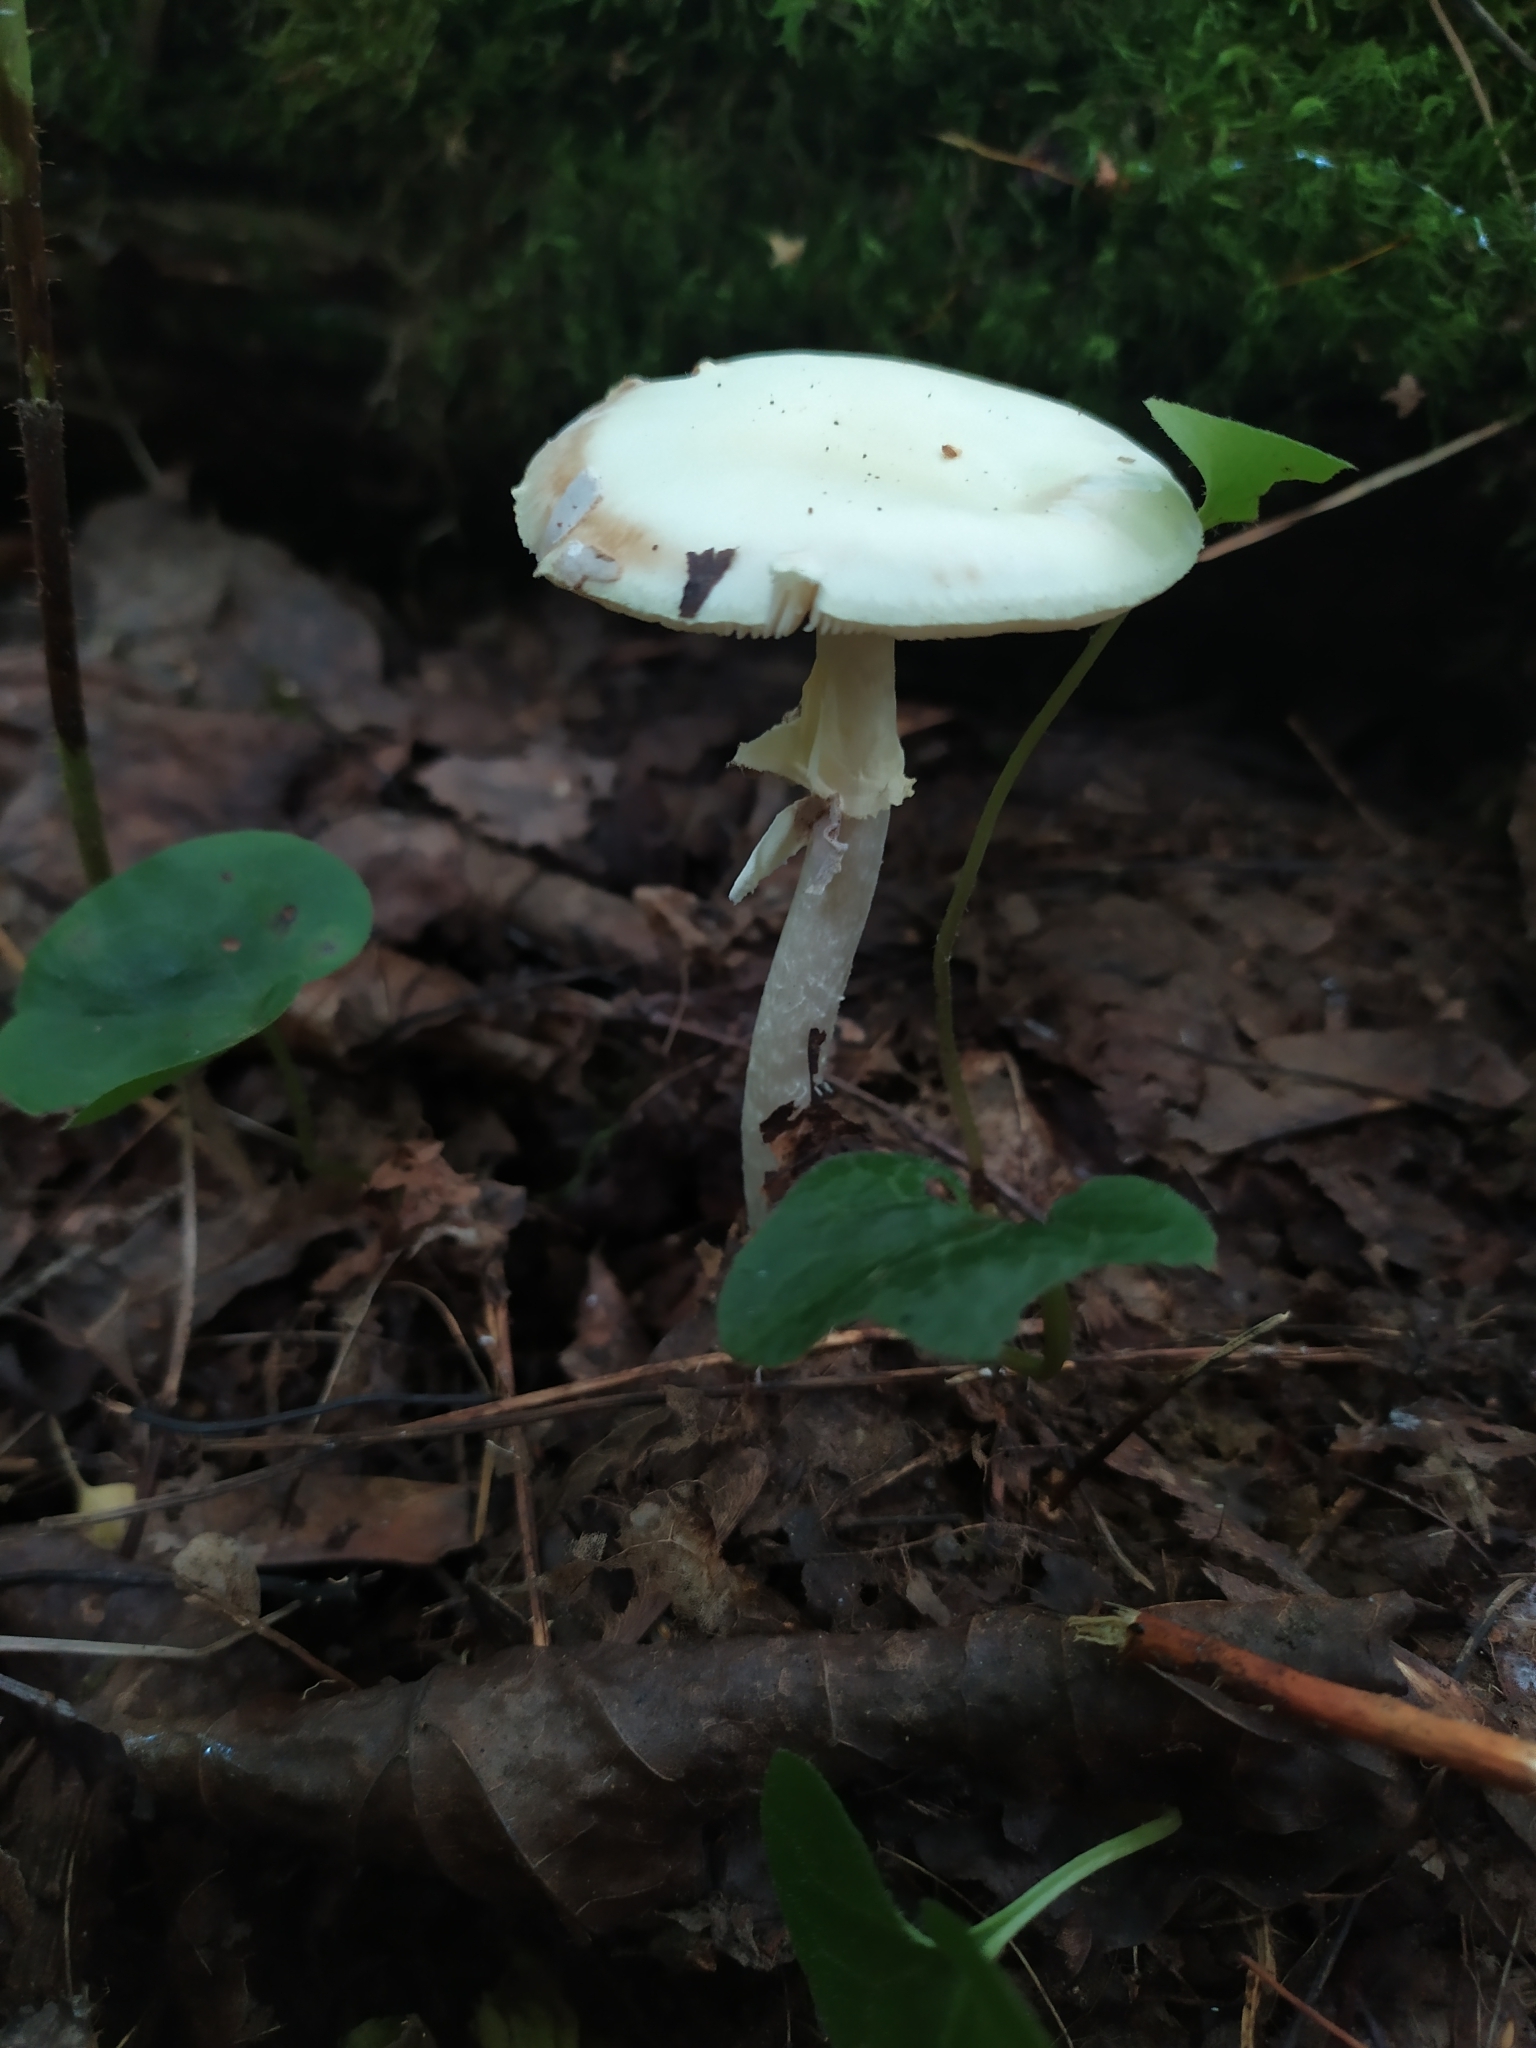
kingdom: Fungi
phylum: Basidiomycota
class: Agaricomycetes
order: Agaricales
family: Amanitaceae
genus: Amanita
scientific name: Amanita citrina
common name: False death-cap
